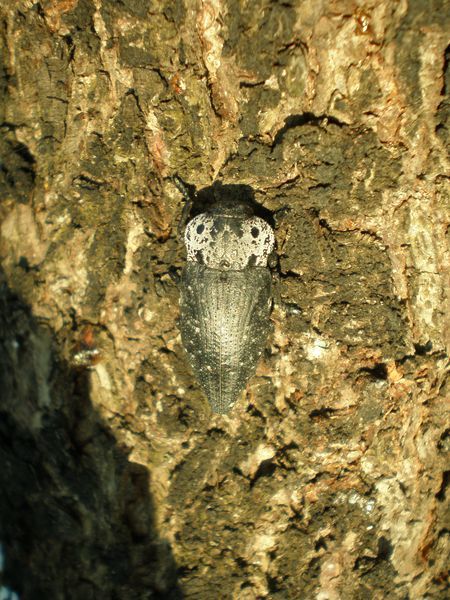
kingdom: Animalia
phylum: Arthropoda
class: Insecta
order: Coleoptera
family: Buprestidae
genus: Capnodis
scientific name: Capnodis tenebrionis
